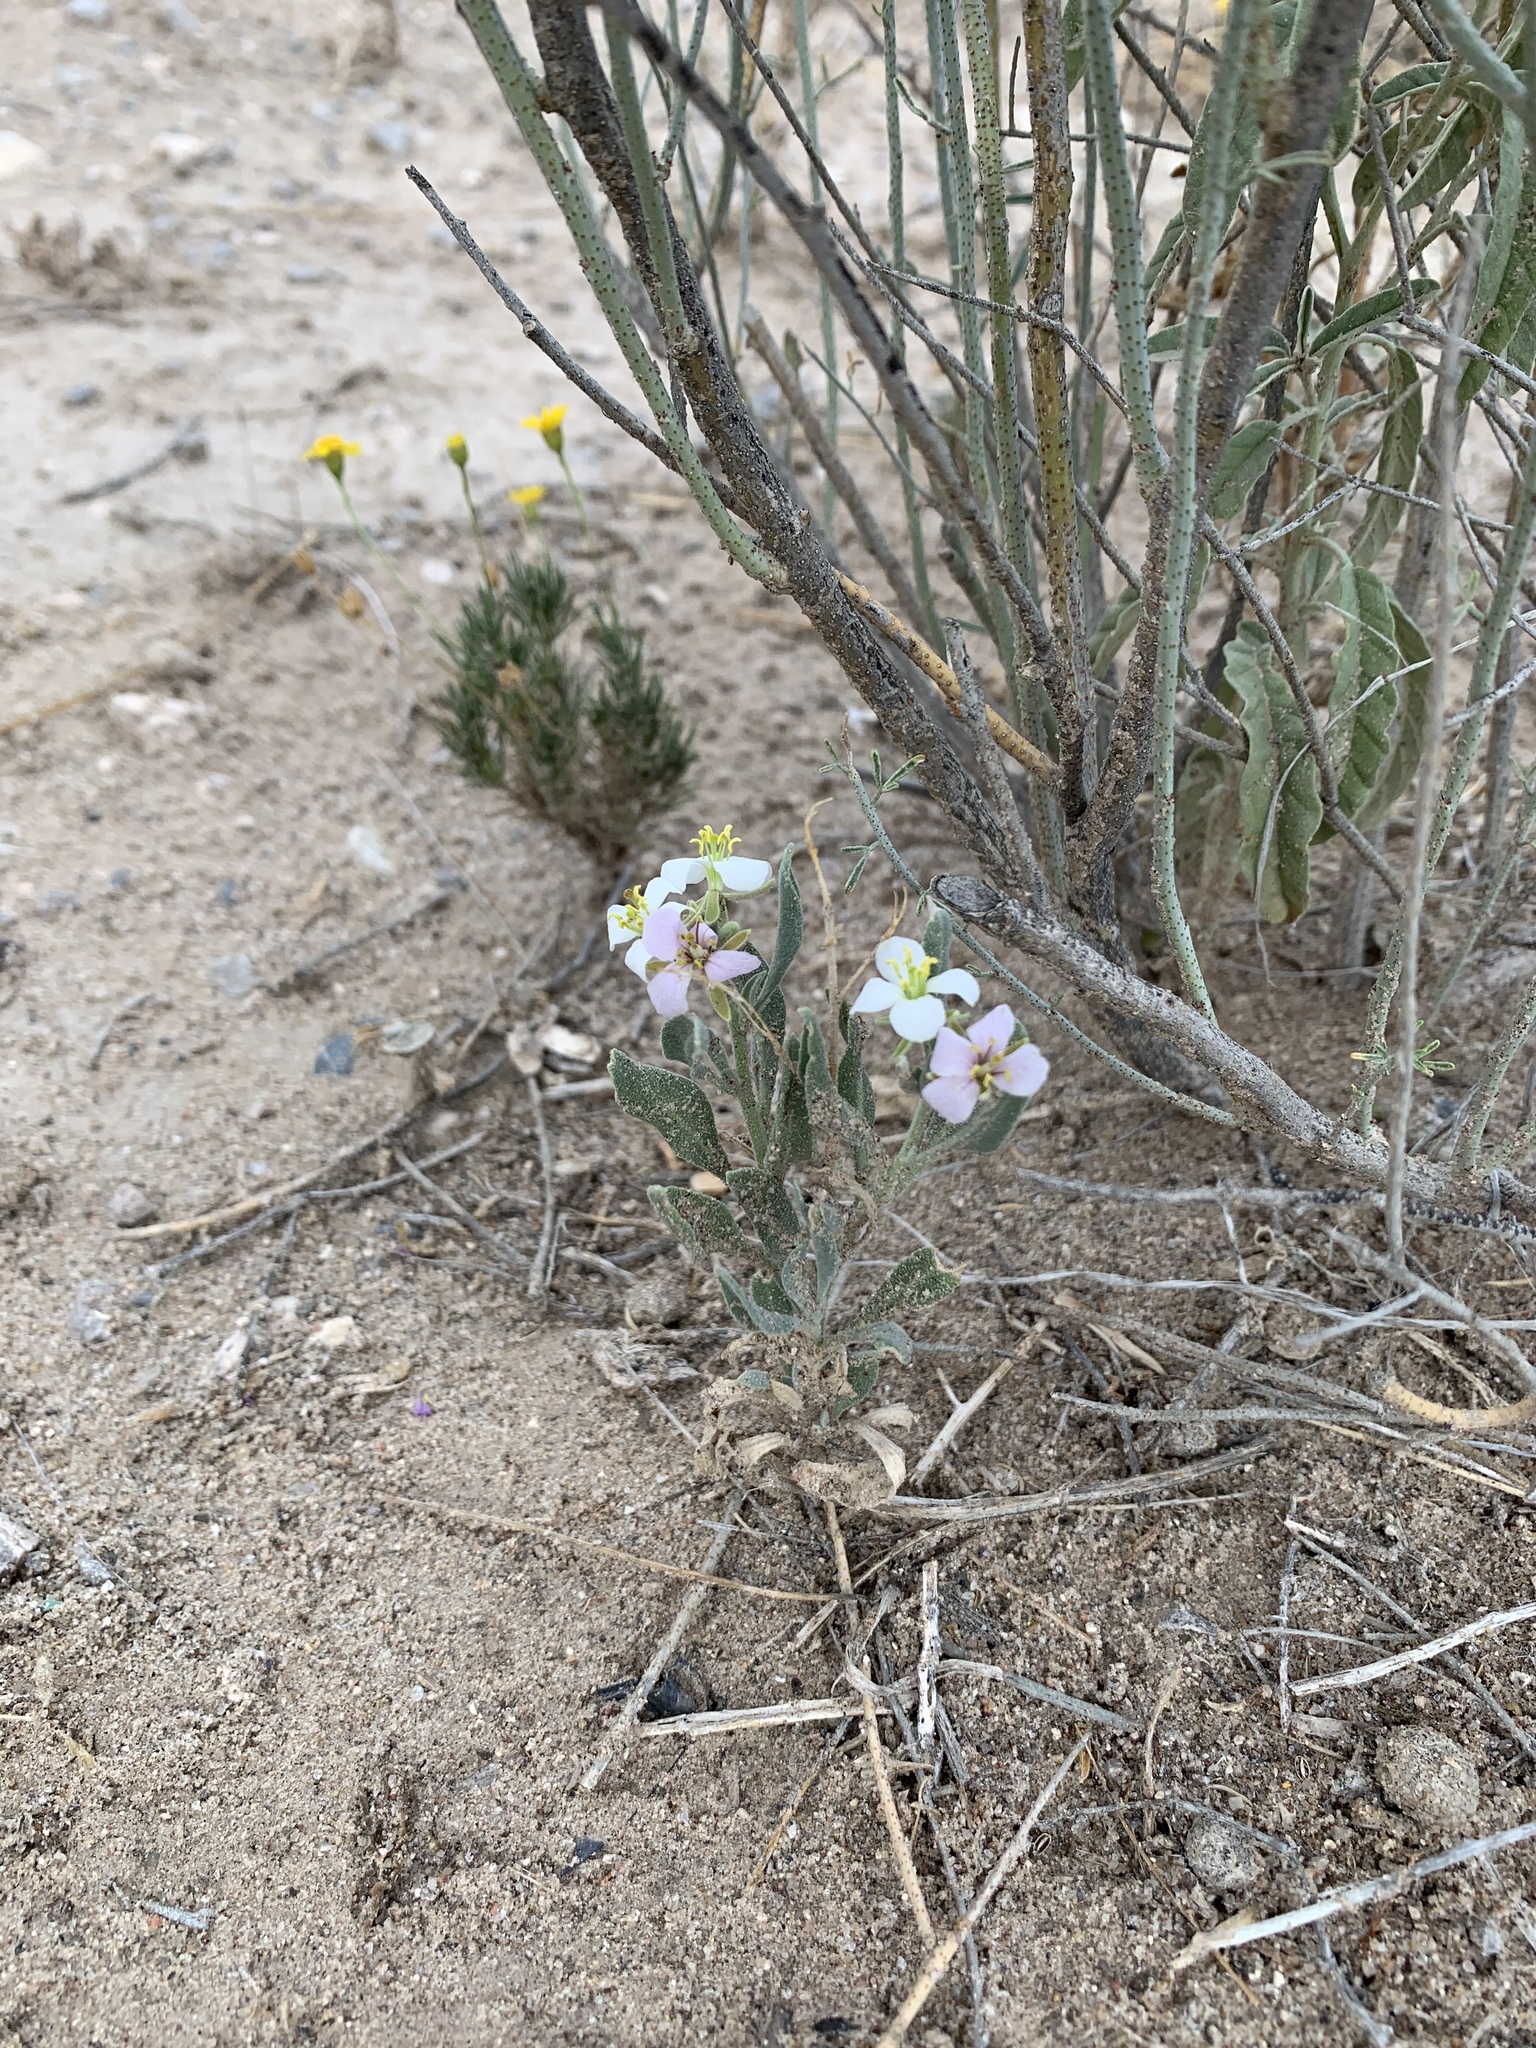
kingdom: Plantae
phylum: Tracheophyta
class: Magnoliopsida
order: Brassicales
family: Brassicaceae
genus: Nerisyrenia
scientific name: Nerisyrenia camporum
